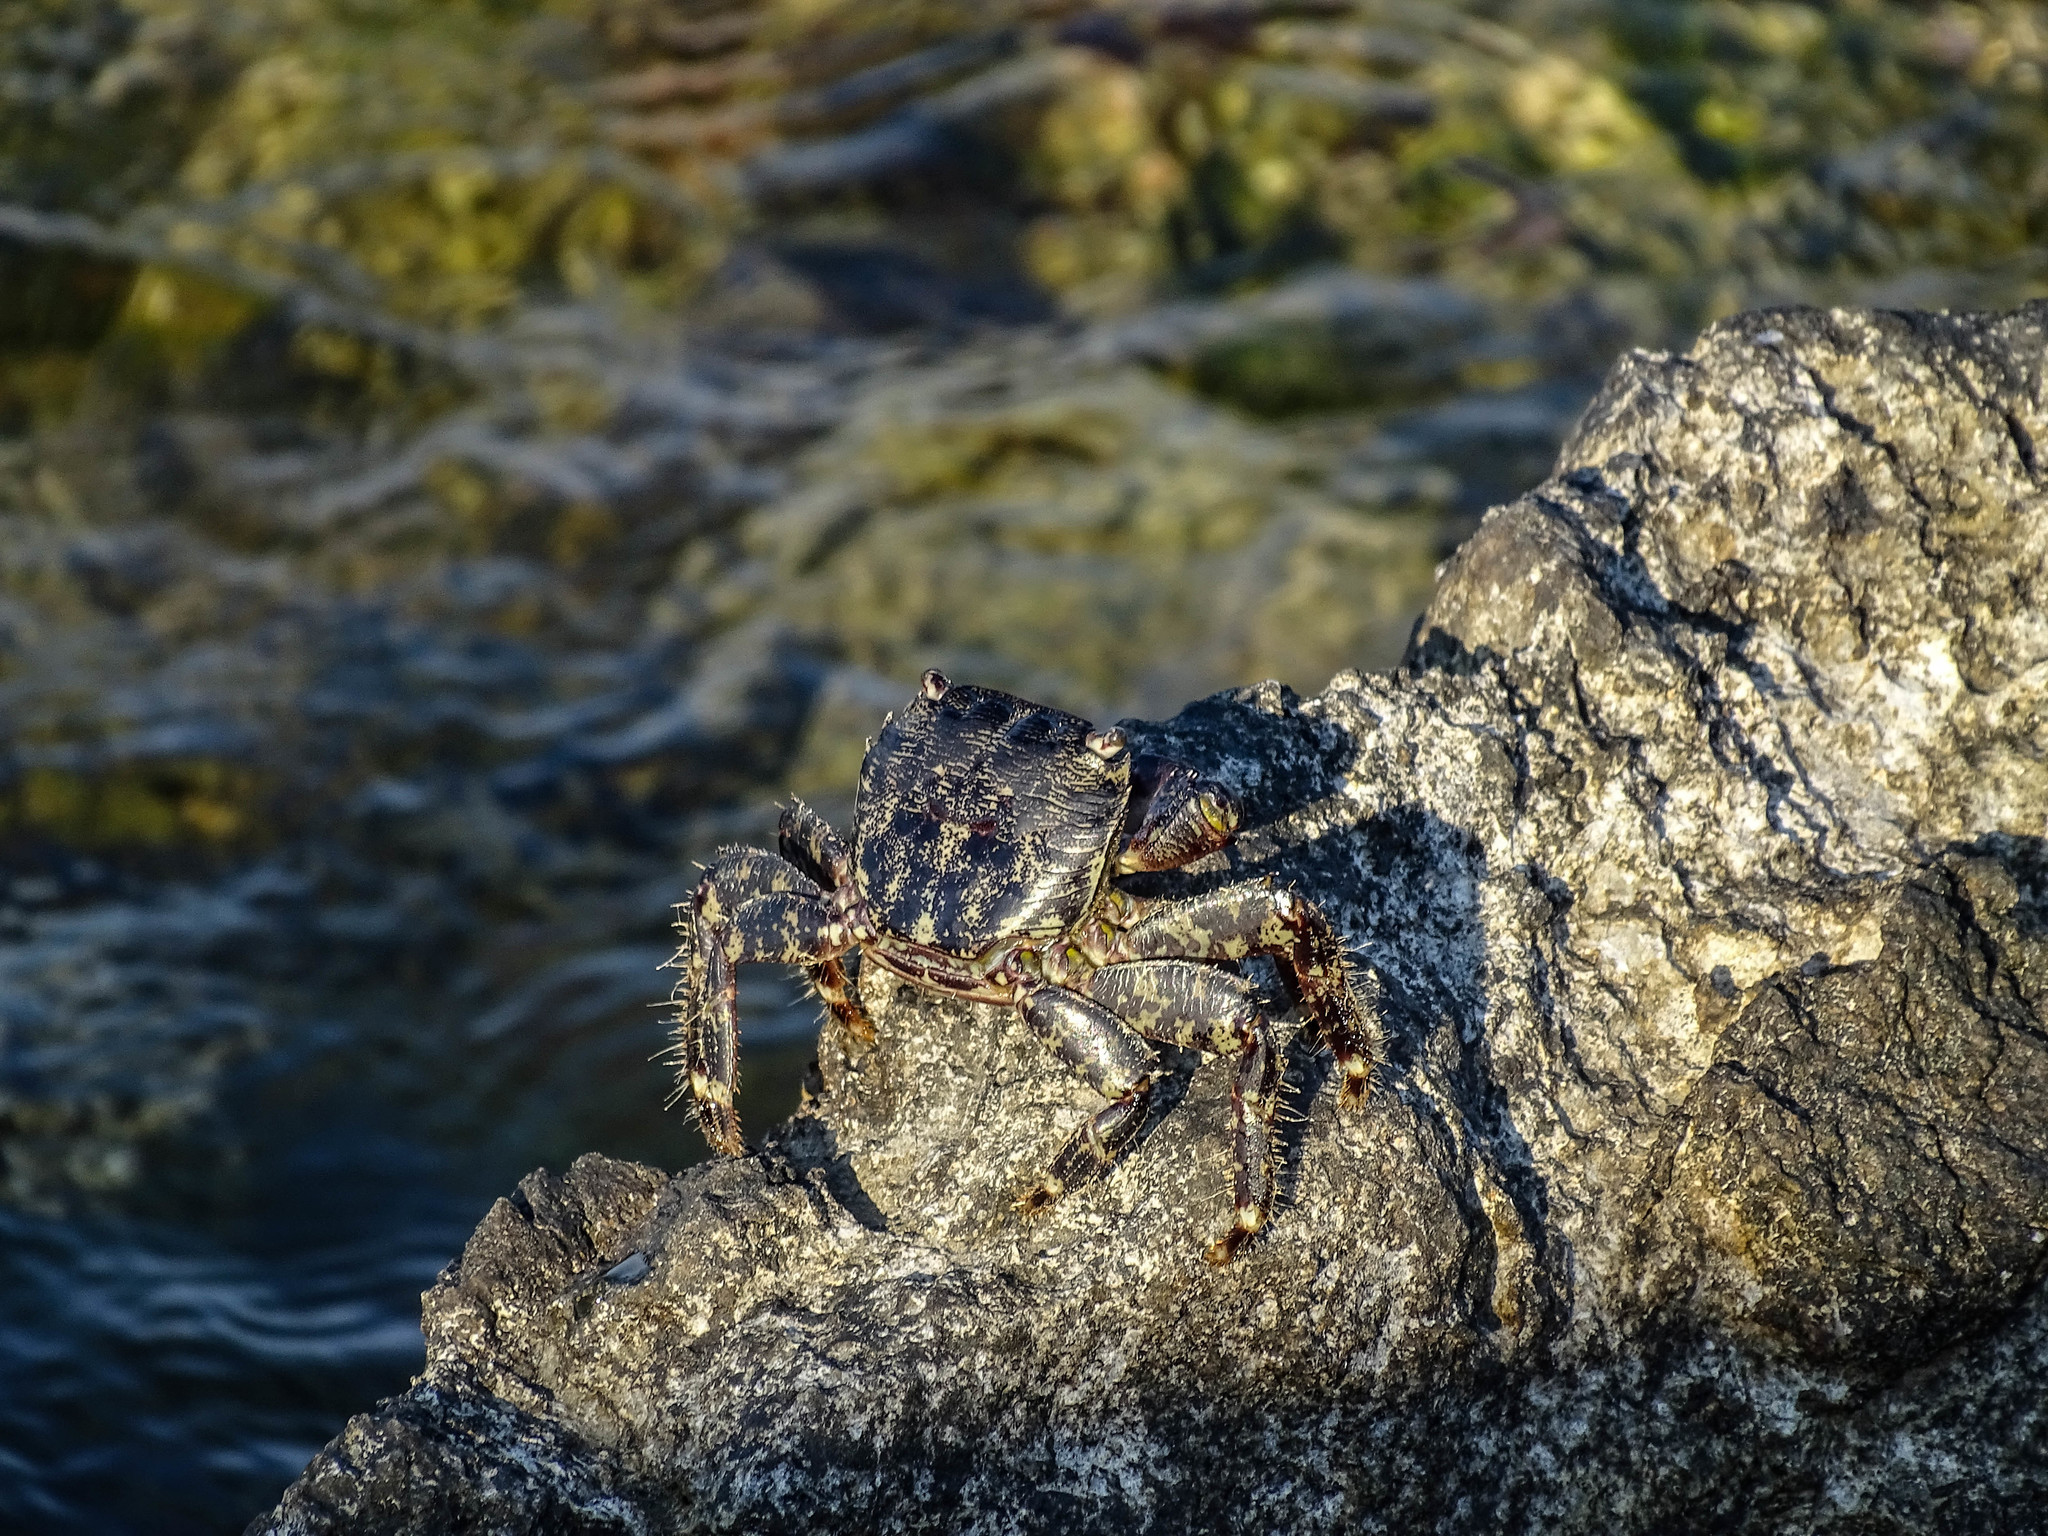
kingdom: Animalia
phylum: Arthropoda
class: Malacostraca
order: Decapoda
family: Grapsidae
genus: Pachygrapsus
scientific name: Pachygrapsus marmoratus
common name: Marbled rock crab
